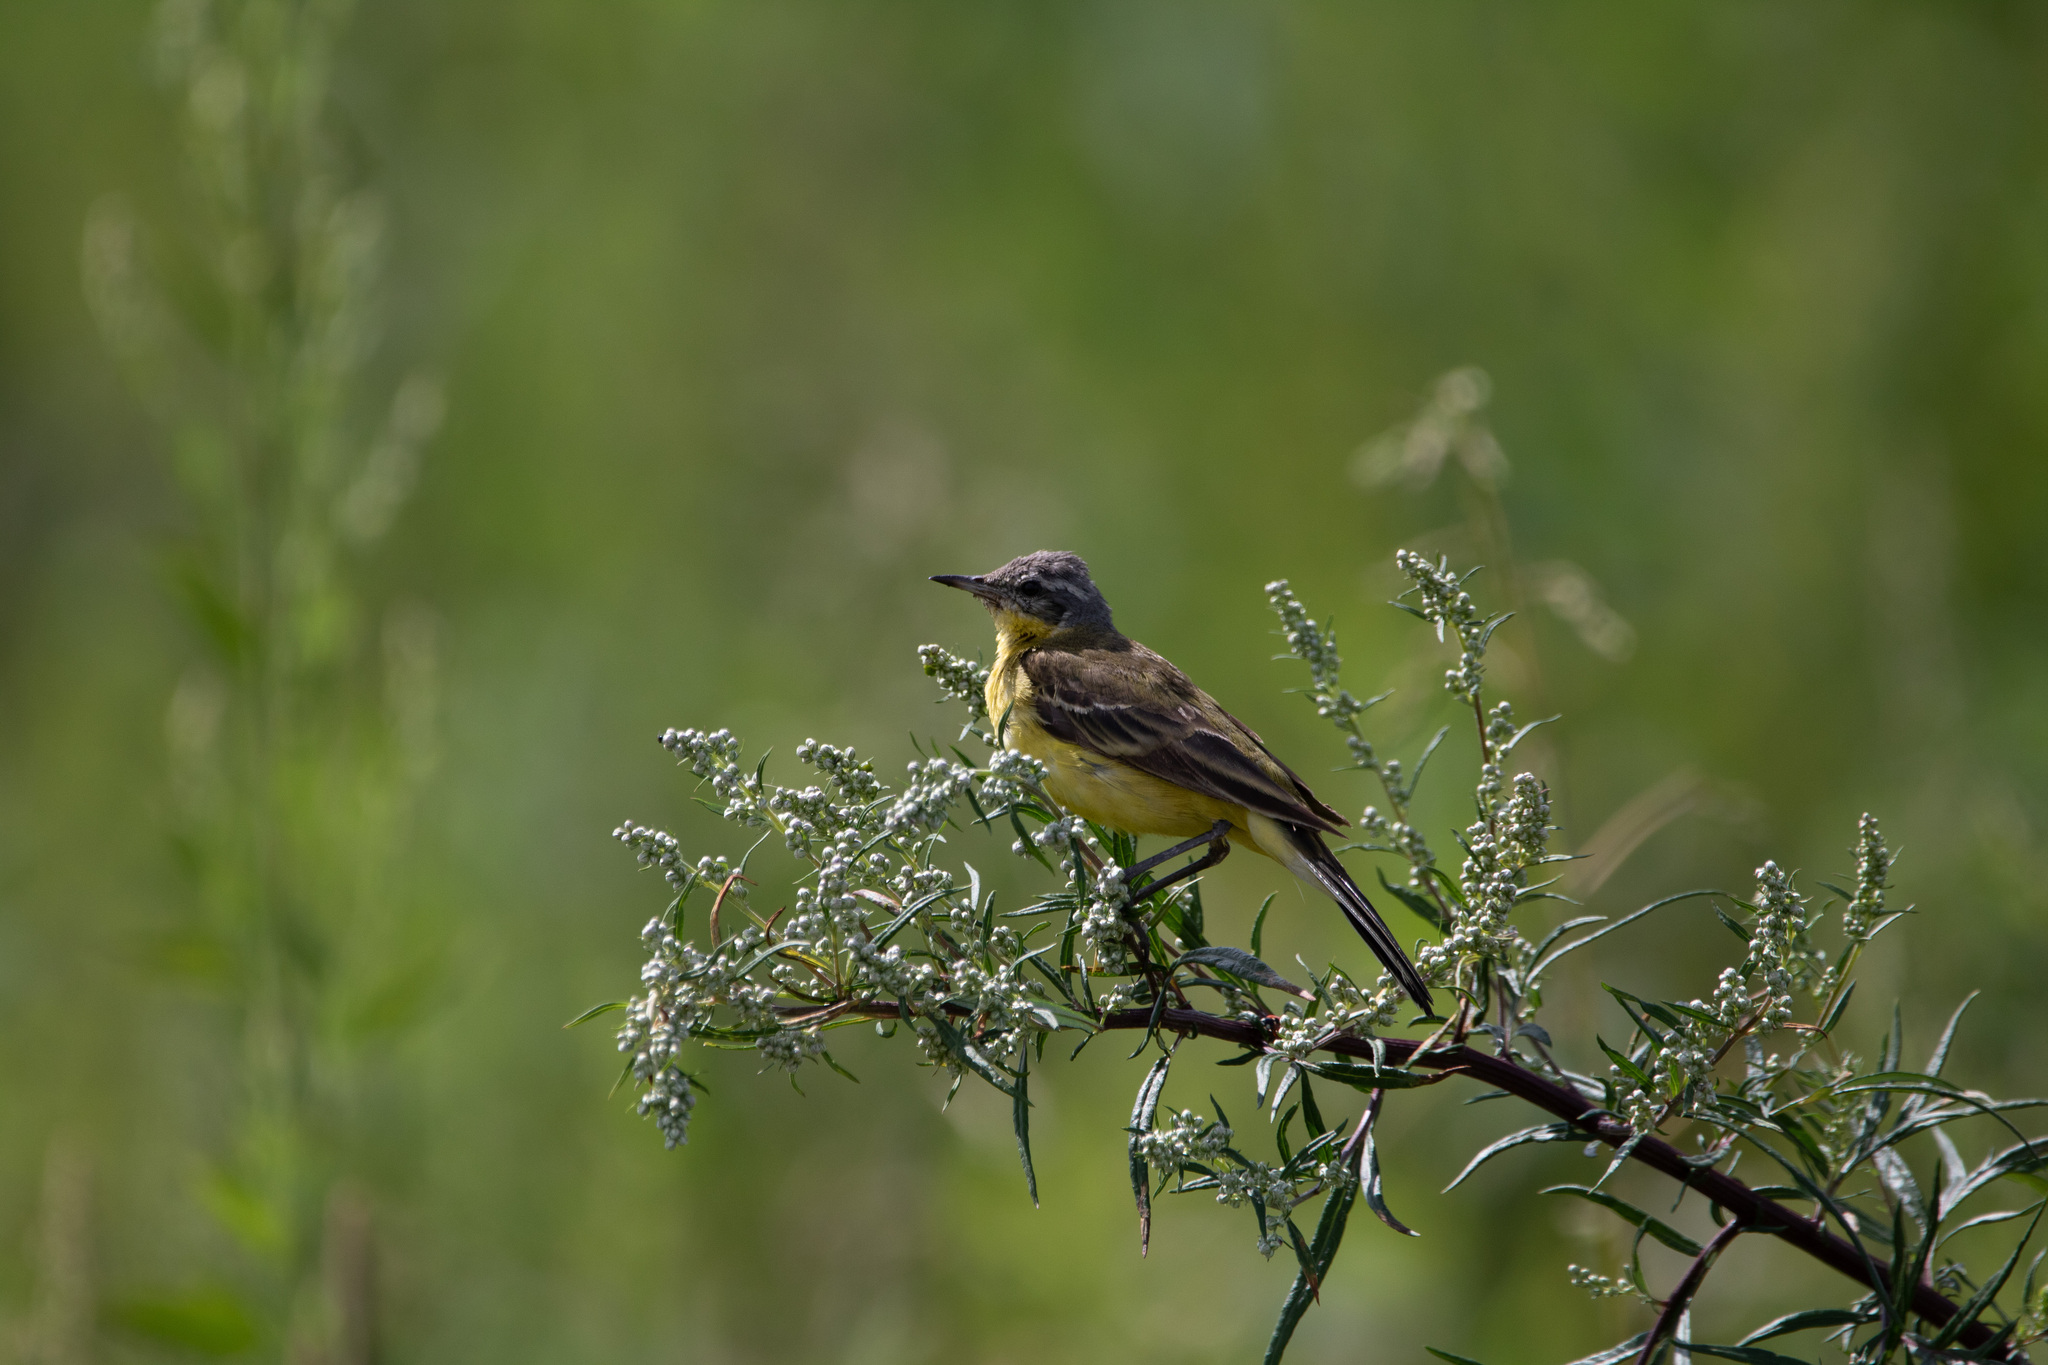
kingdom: Animalia
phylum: Chordata
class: Aves
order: Passeriformes
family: Motacillidae
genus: Motacilla
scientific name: Motacilla flava
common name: Western yellow wagtail
